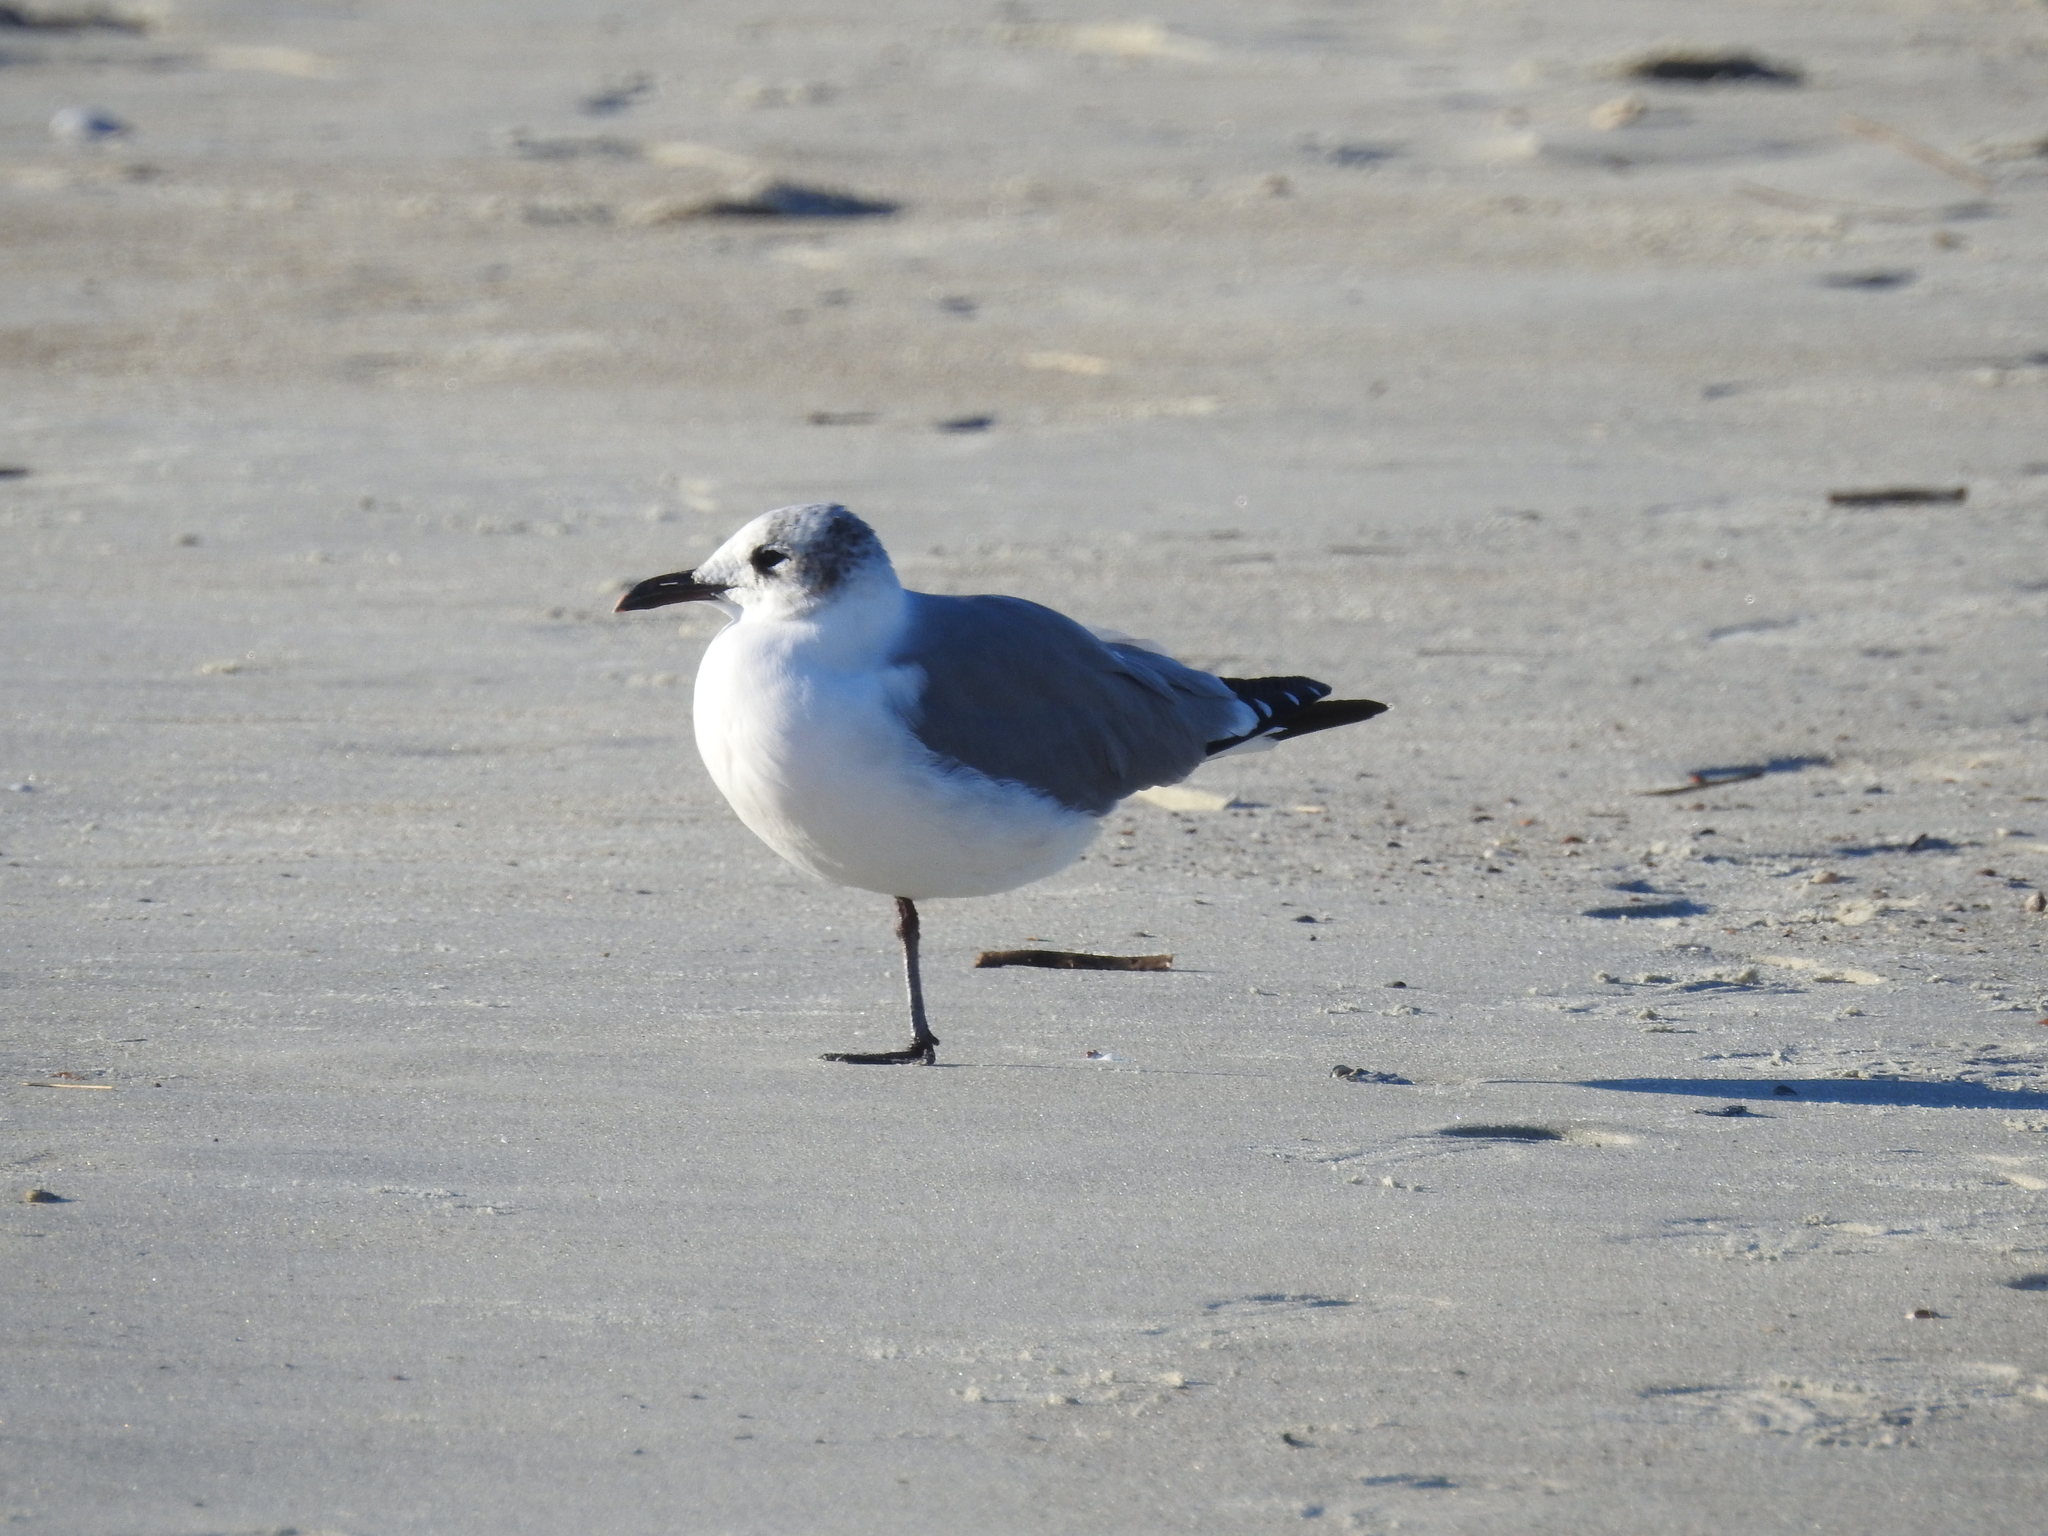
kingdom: Animalia
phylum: Chordata
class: Aves
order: Charadriiformes
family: Laridae
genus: Leucophaeus
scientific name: Leucophaeus atricilla
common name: Laughing gull
